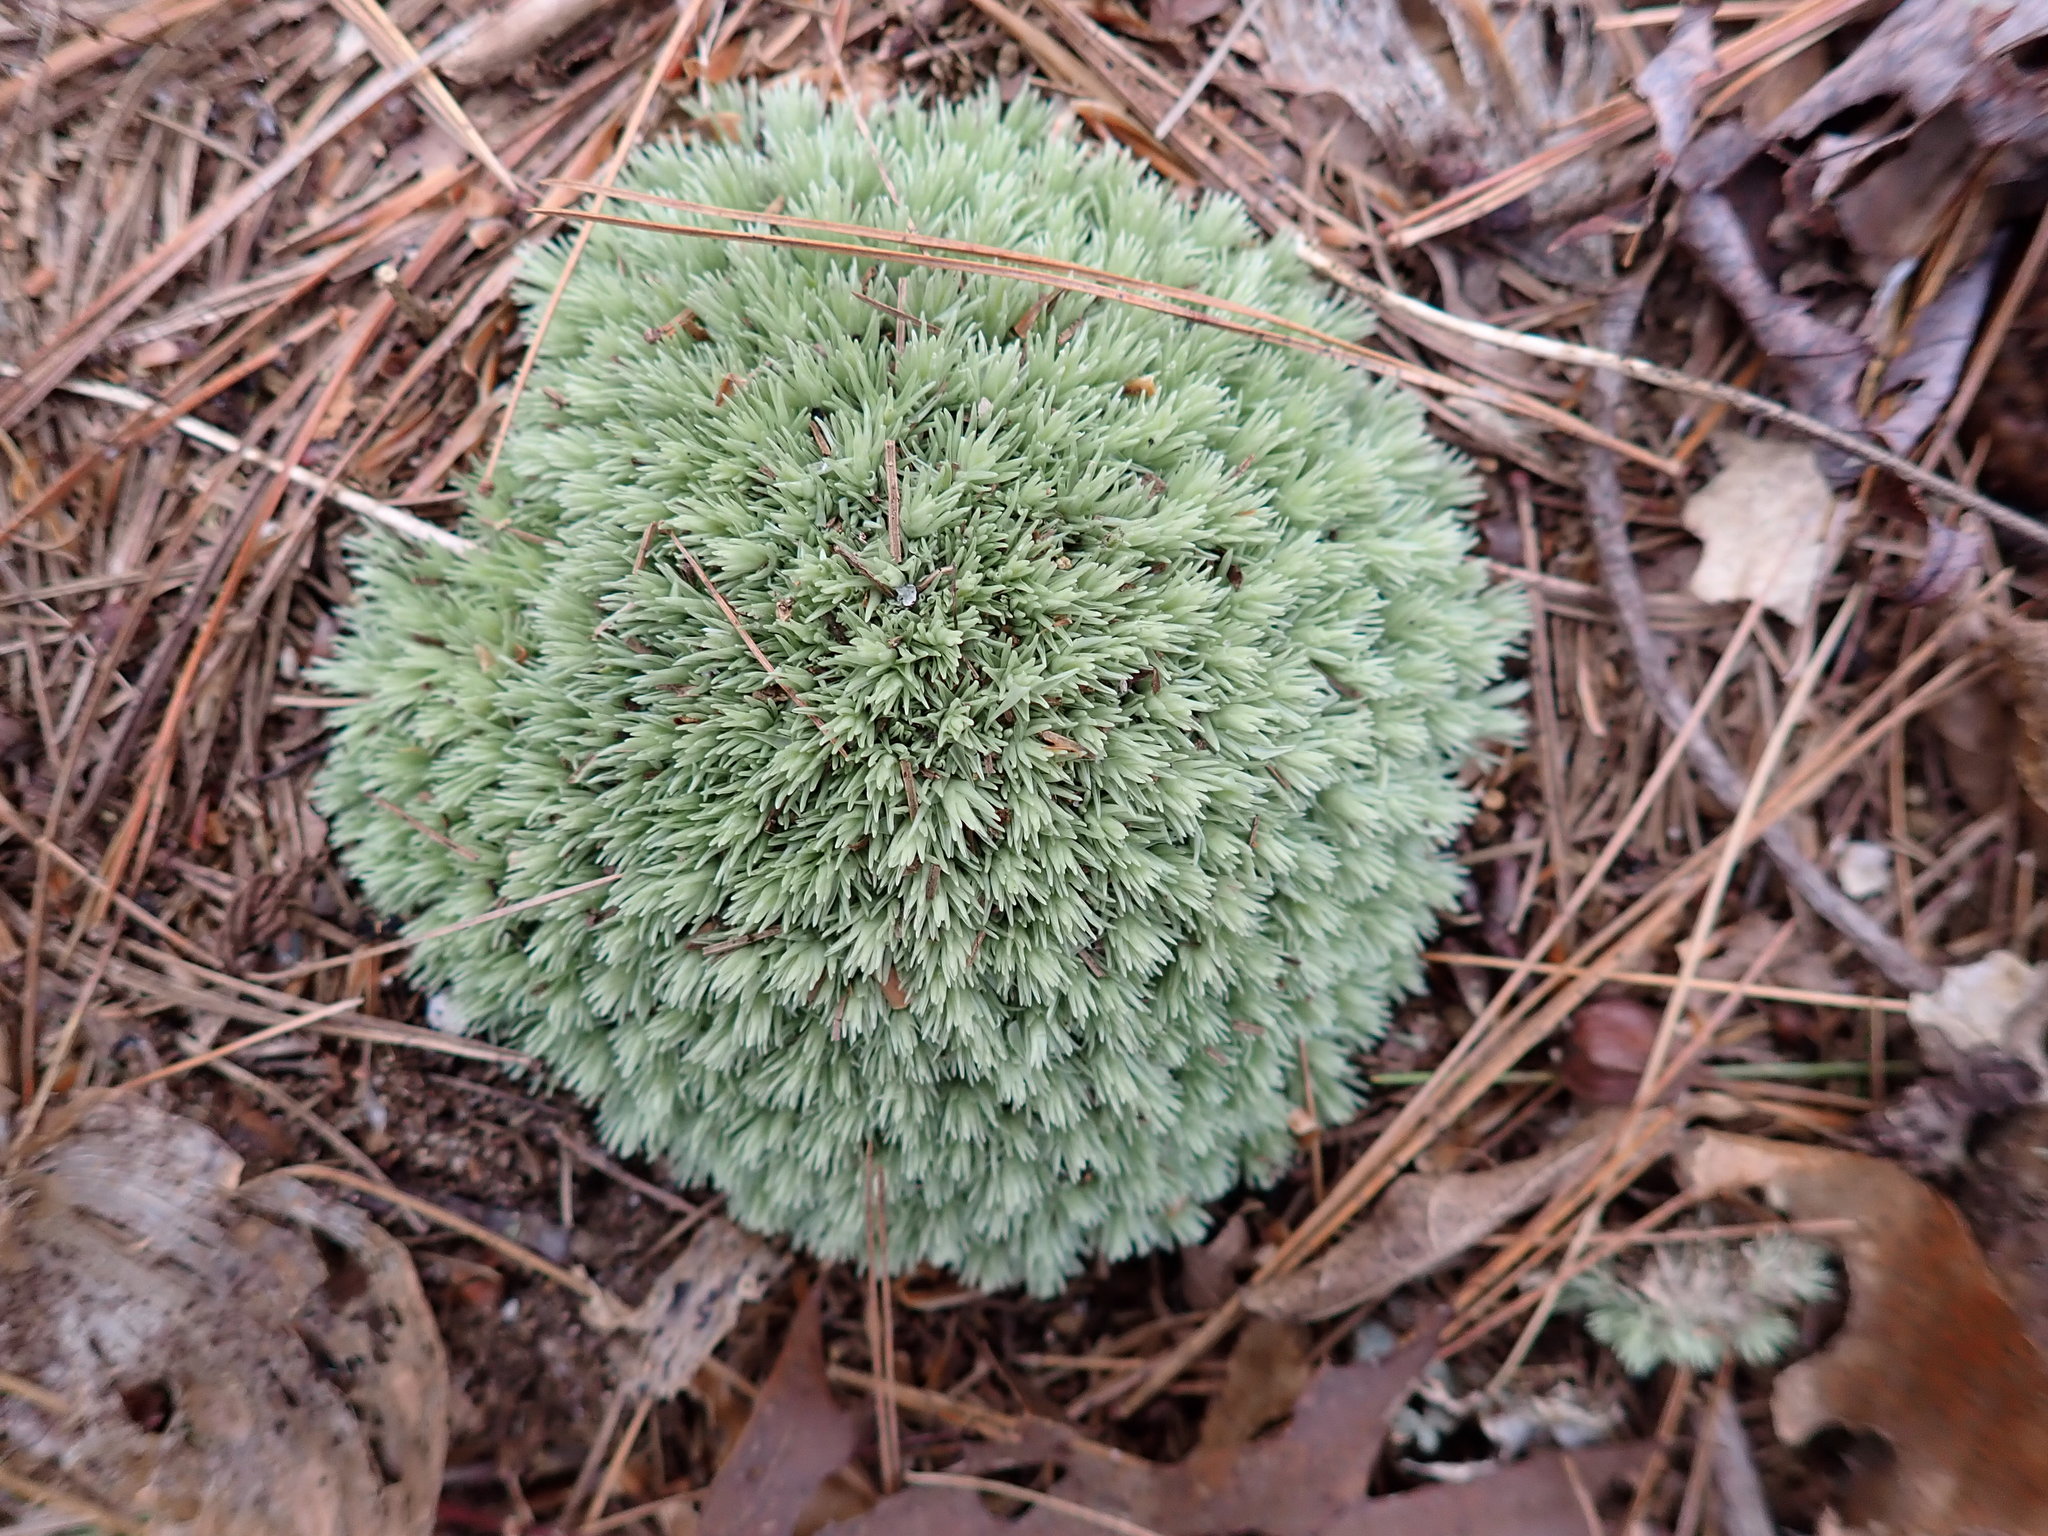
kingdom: Plantae
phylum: Bryophyta
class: Bryopsida
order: Dicranales
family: Leucobryaceae
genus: Leucobryum
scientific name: Leucobryum glaucum
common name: Large white-moss
